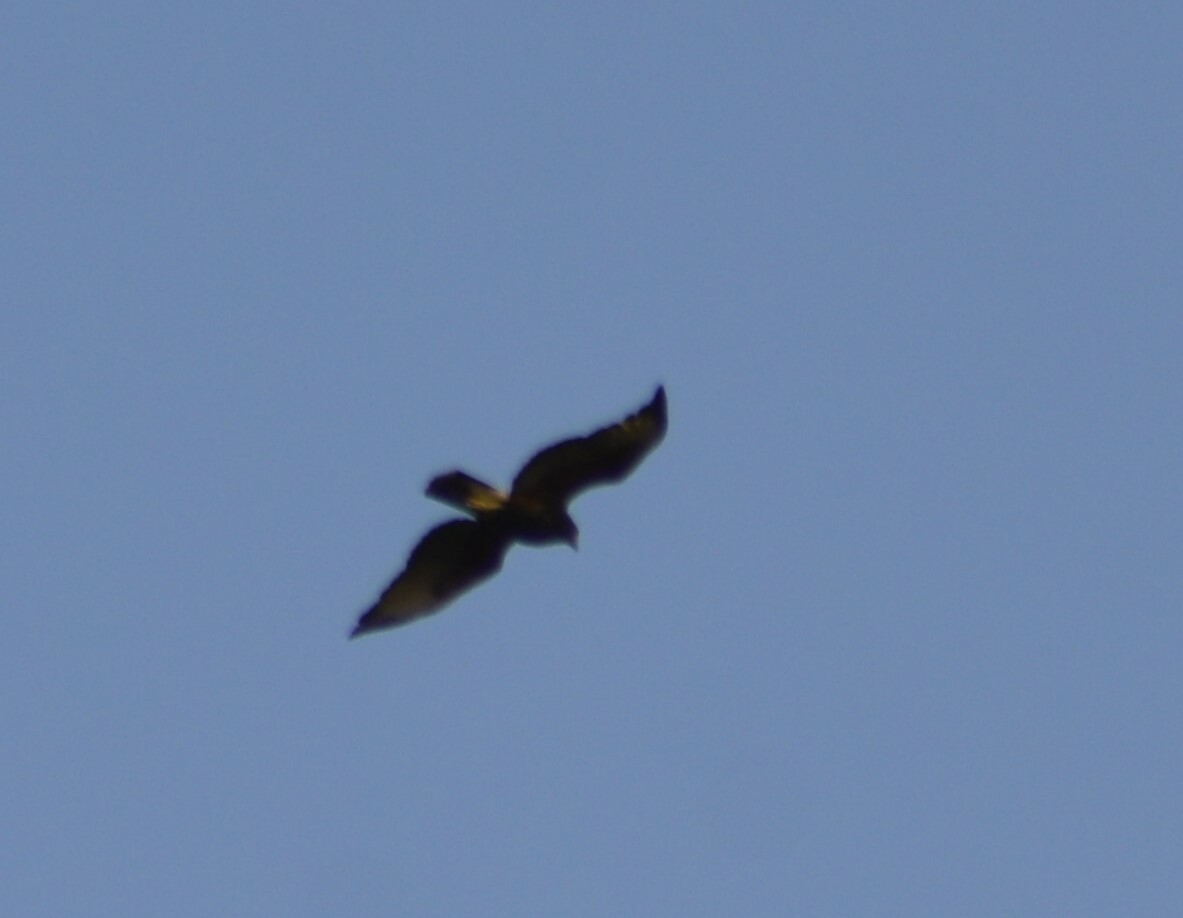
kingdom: Animalia
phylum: Chordata
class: Aves
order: Accipitriformes
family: Accipitridae
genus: Parabuteo
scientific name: Parabuteo unicinctus
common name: Harris's hawk
